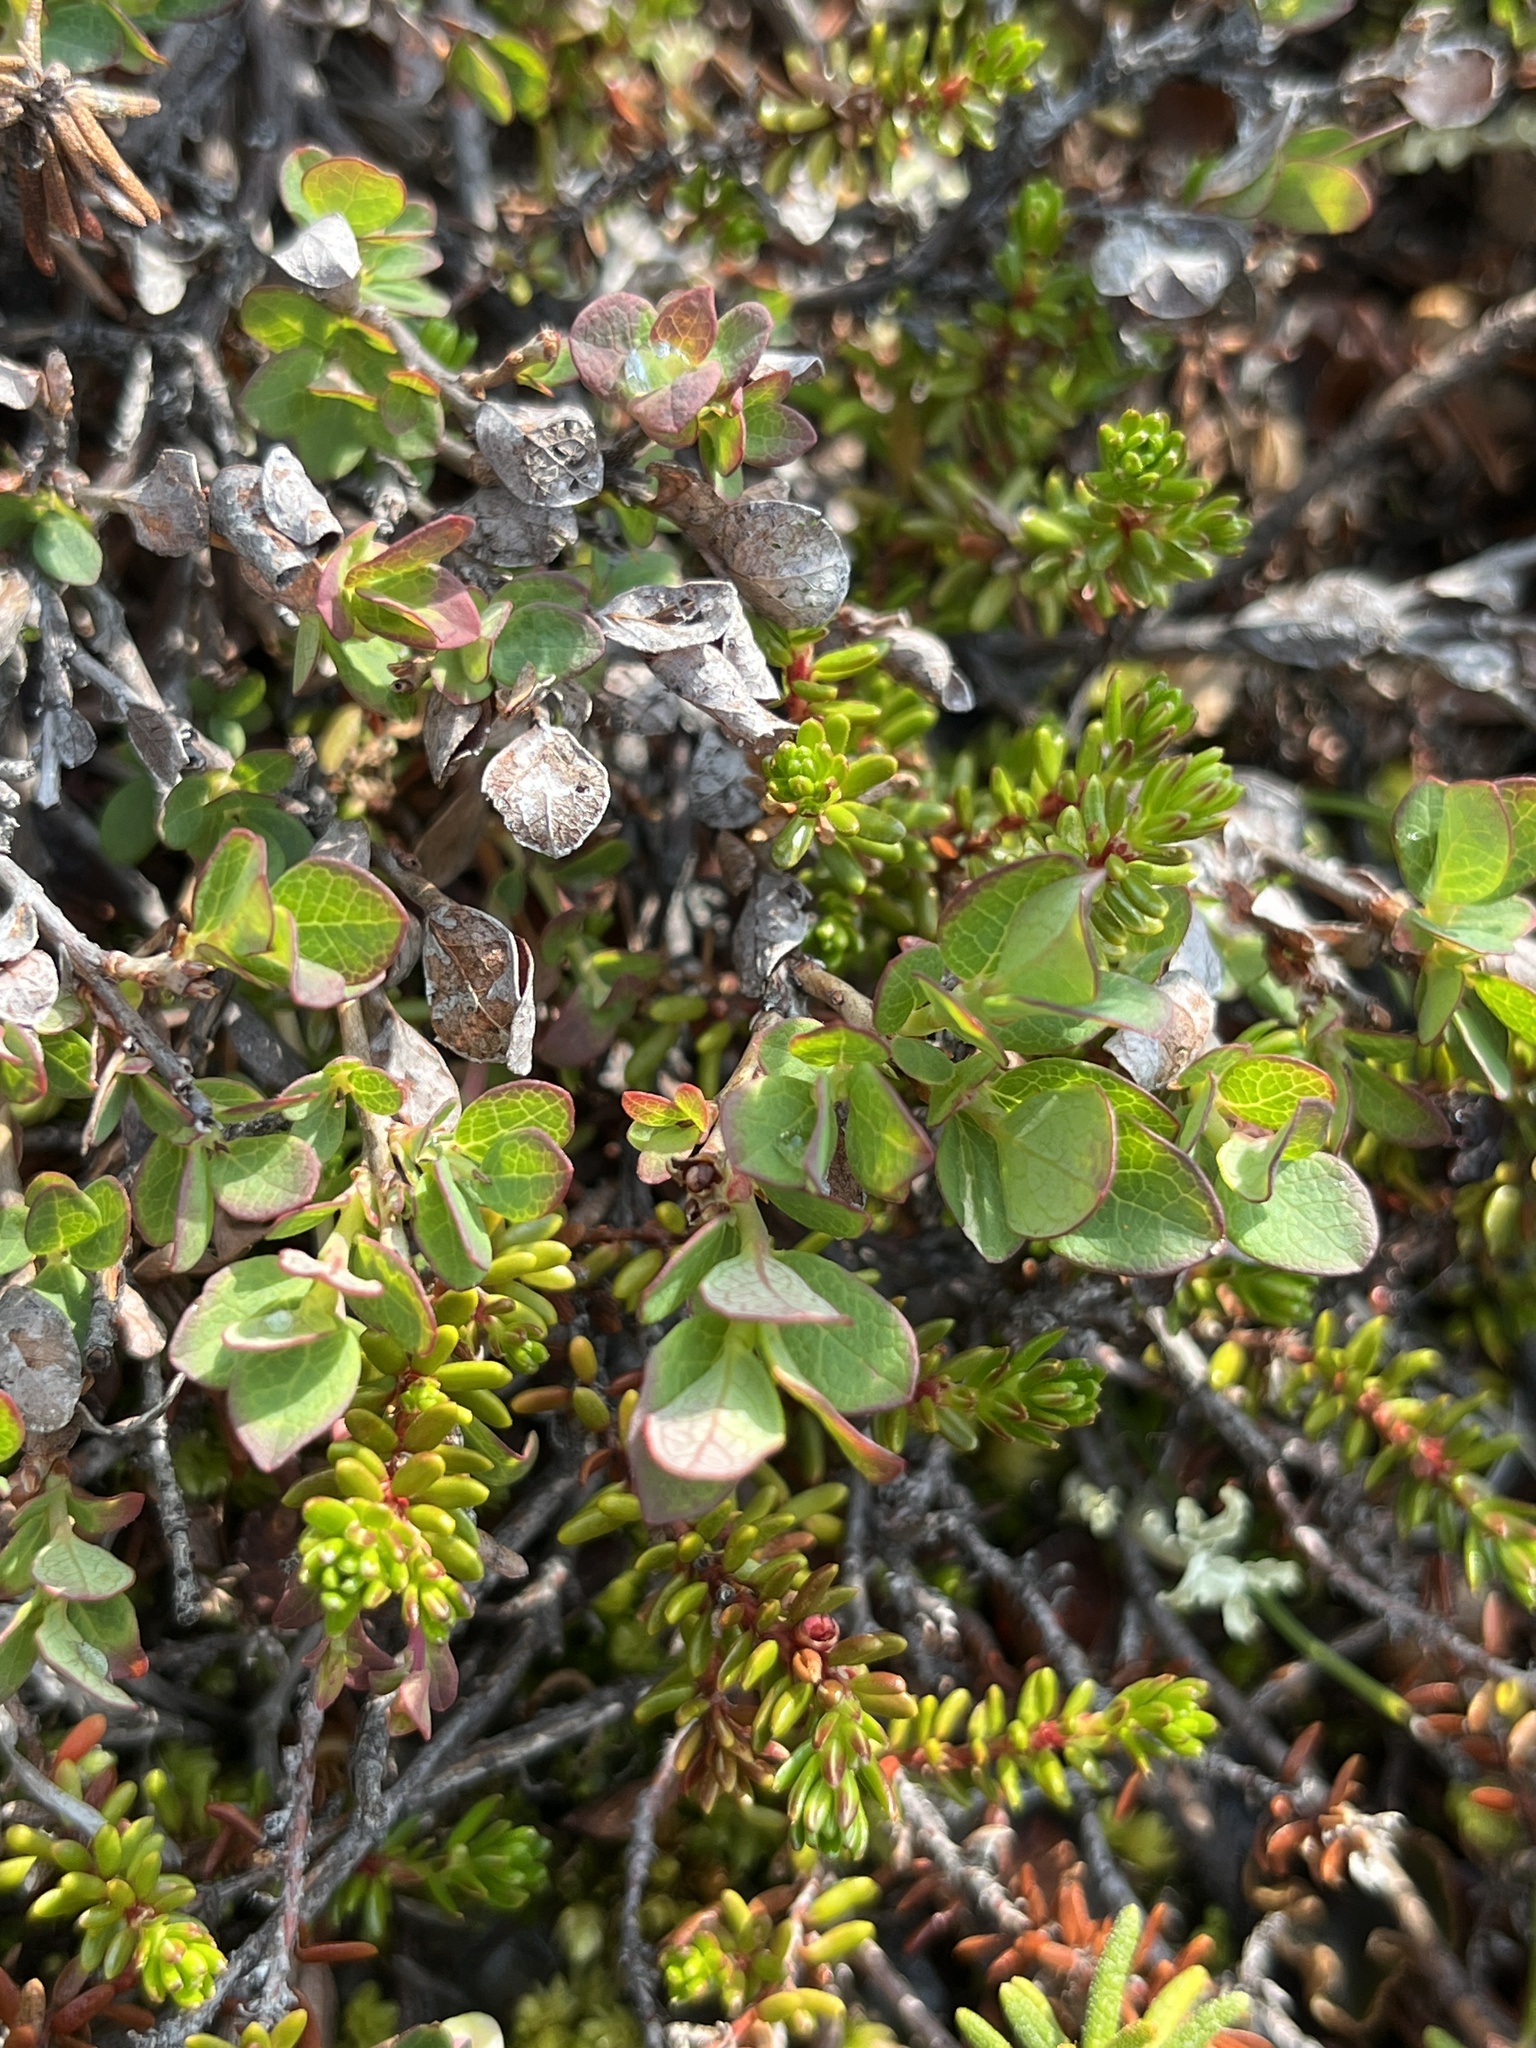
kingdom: Plantae
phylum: Tracheophyta
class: Magnoliopsida
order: Ericales
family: Ericaceae
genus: Vaccinium
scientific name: Vaccinium uliginosum
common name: Bog bilberry
